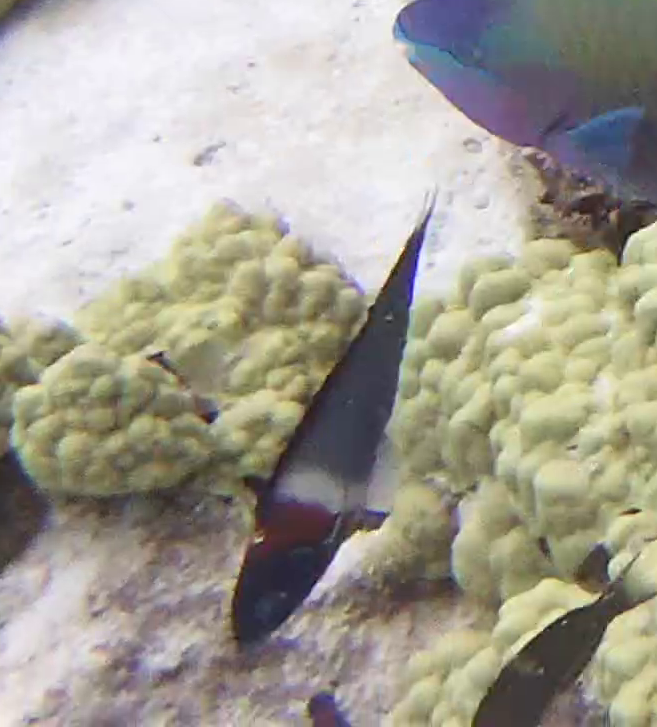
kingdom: Animalia
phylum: Chordata
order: Perciformes
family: Labridae
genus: Thalassoma
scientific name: Thalassoma duperrey
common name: Saddle wrasse
